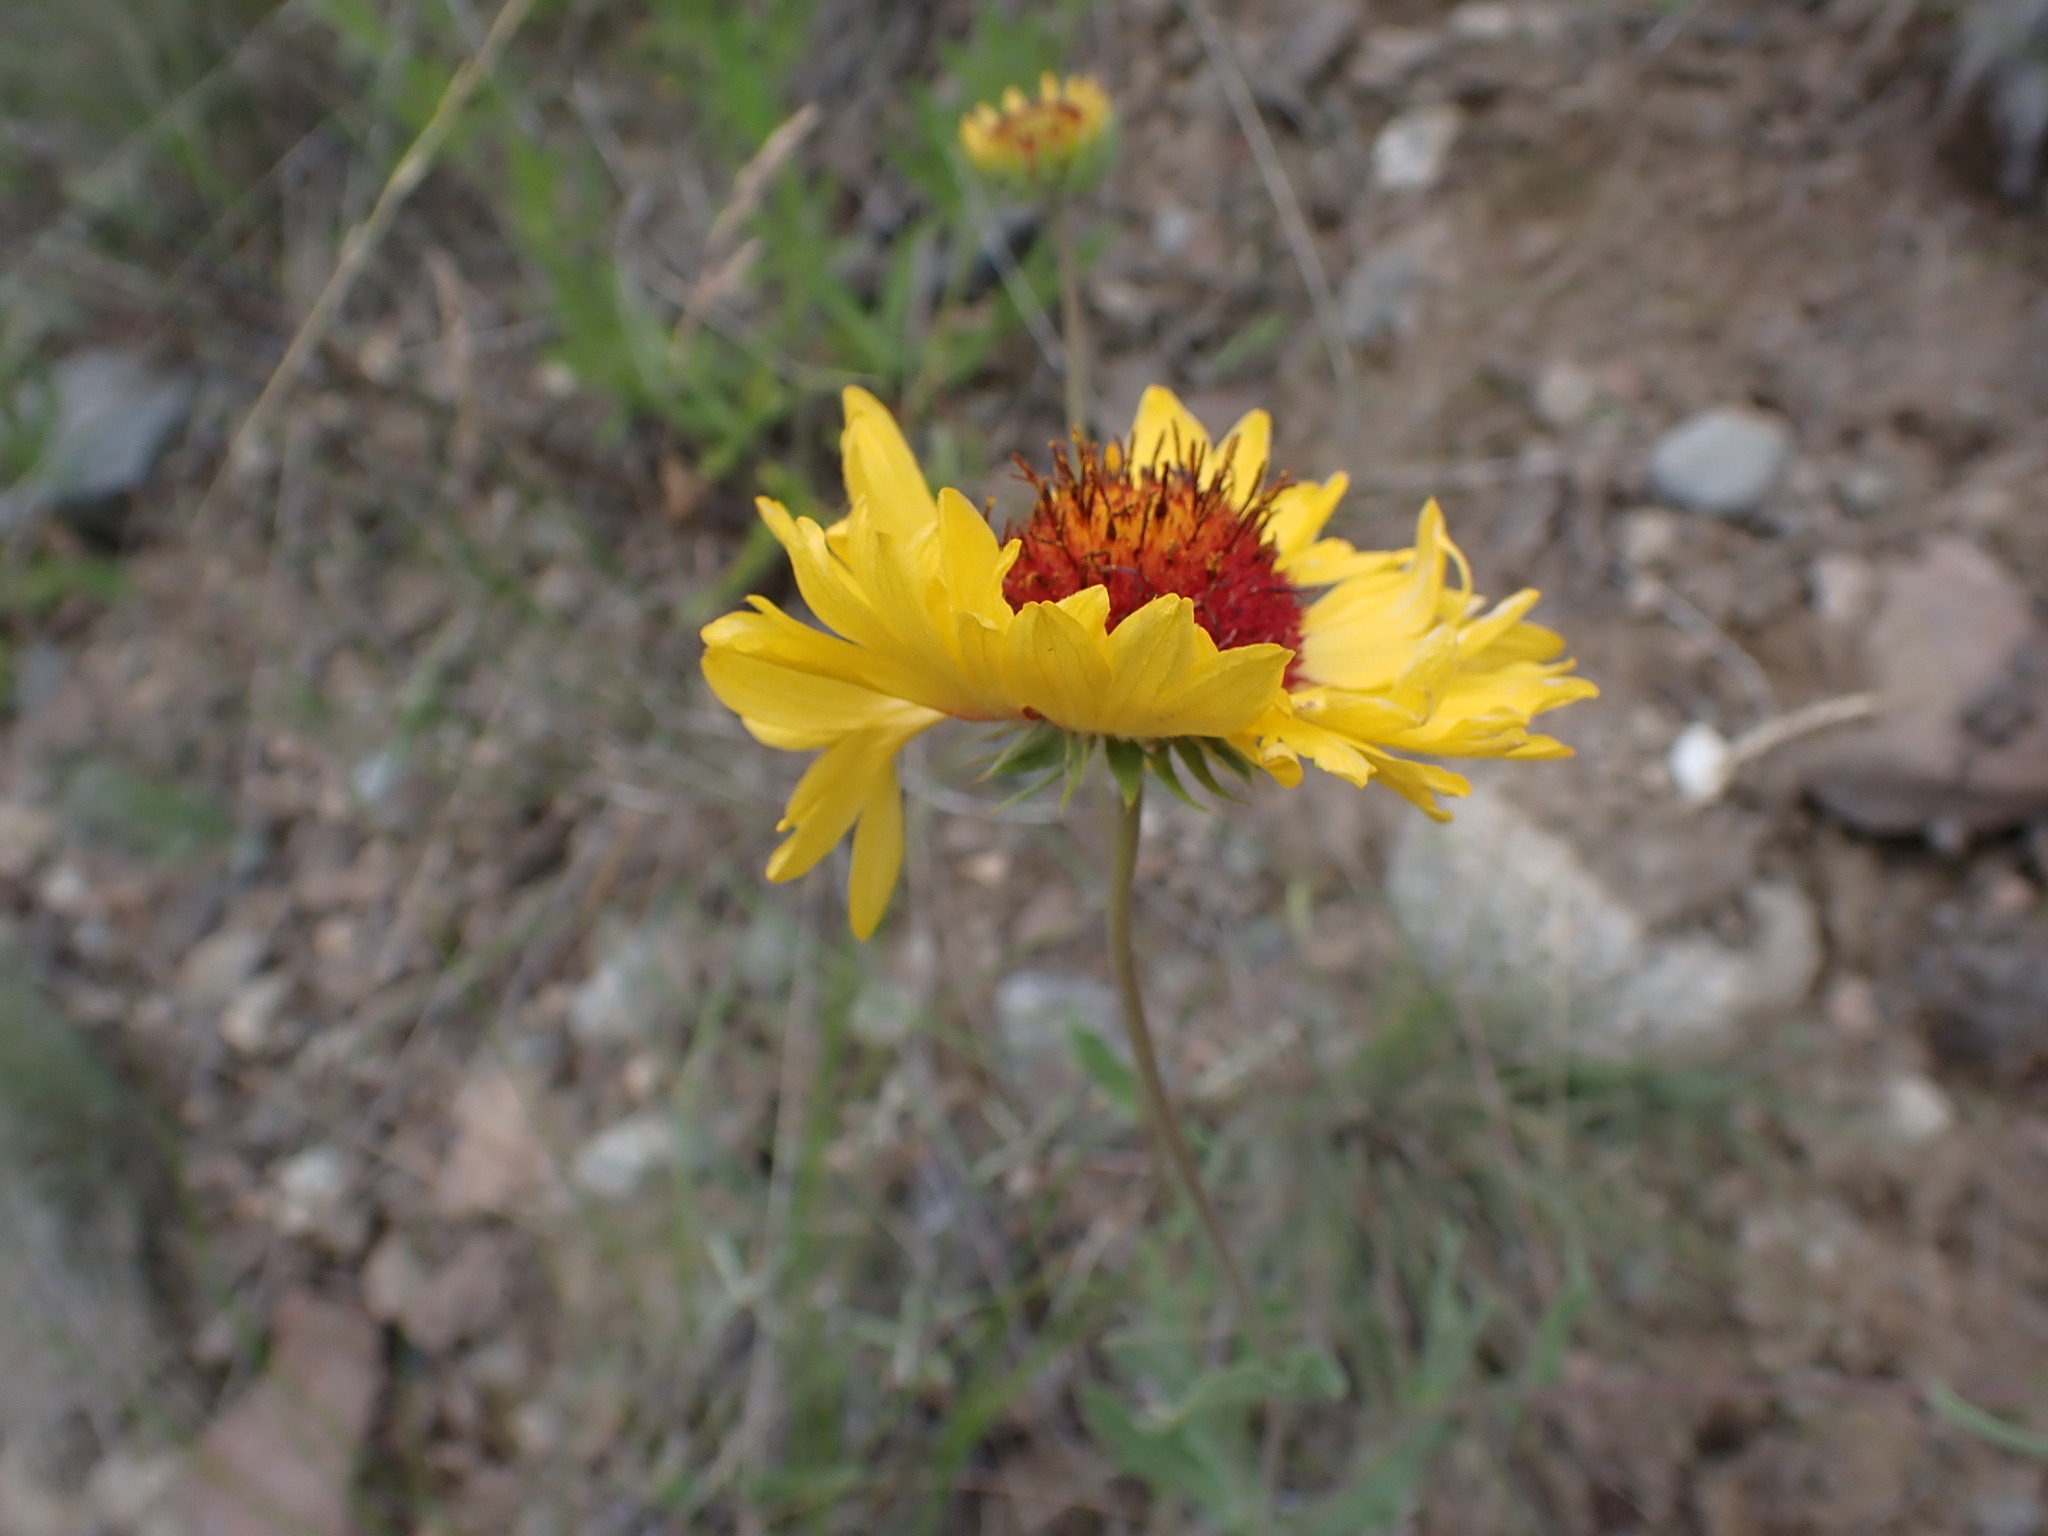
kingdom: Plantae
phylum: Tracheophyta
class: Magnoliopsida
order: Asterales
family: Asteraceae
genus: Gaillardia
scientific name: Gaillardia aristata
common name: Blanket-flower
